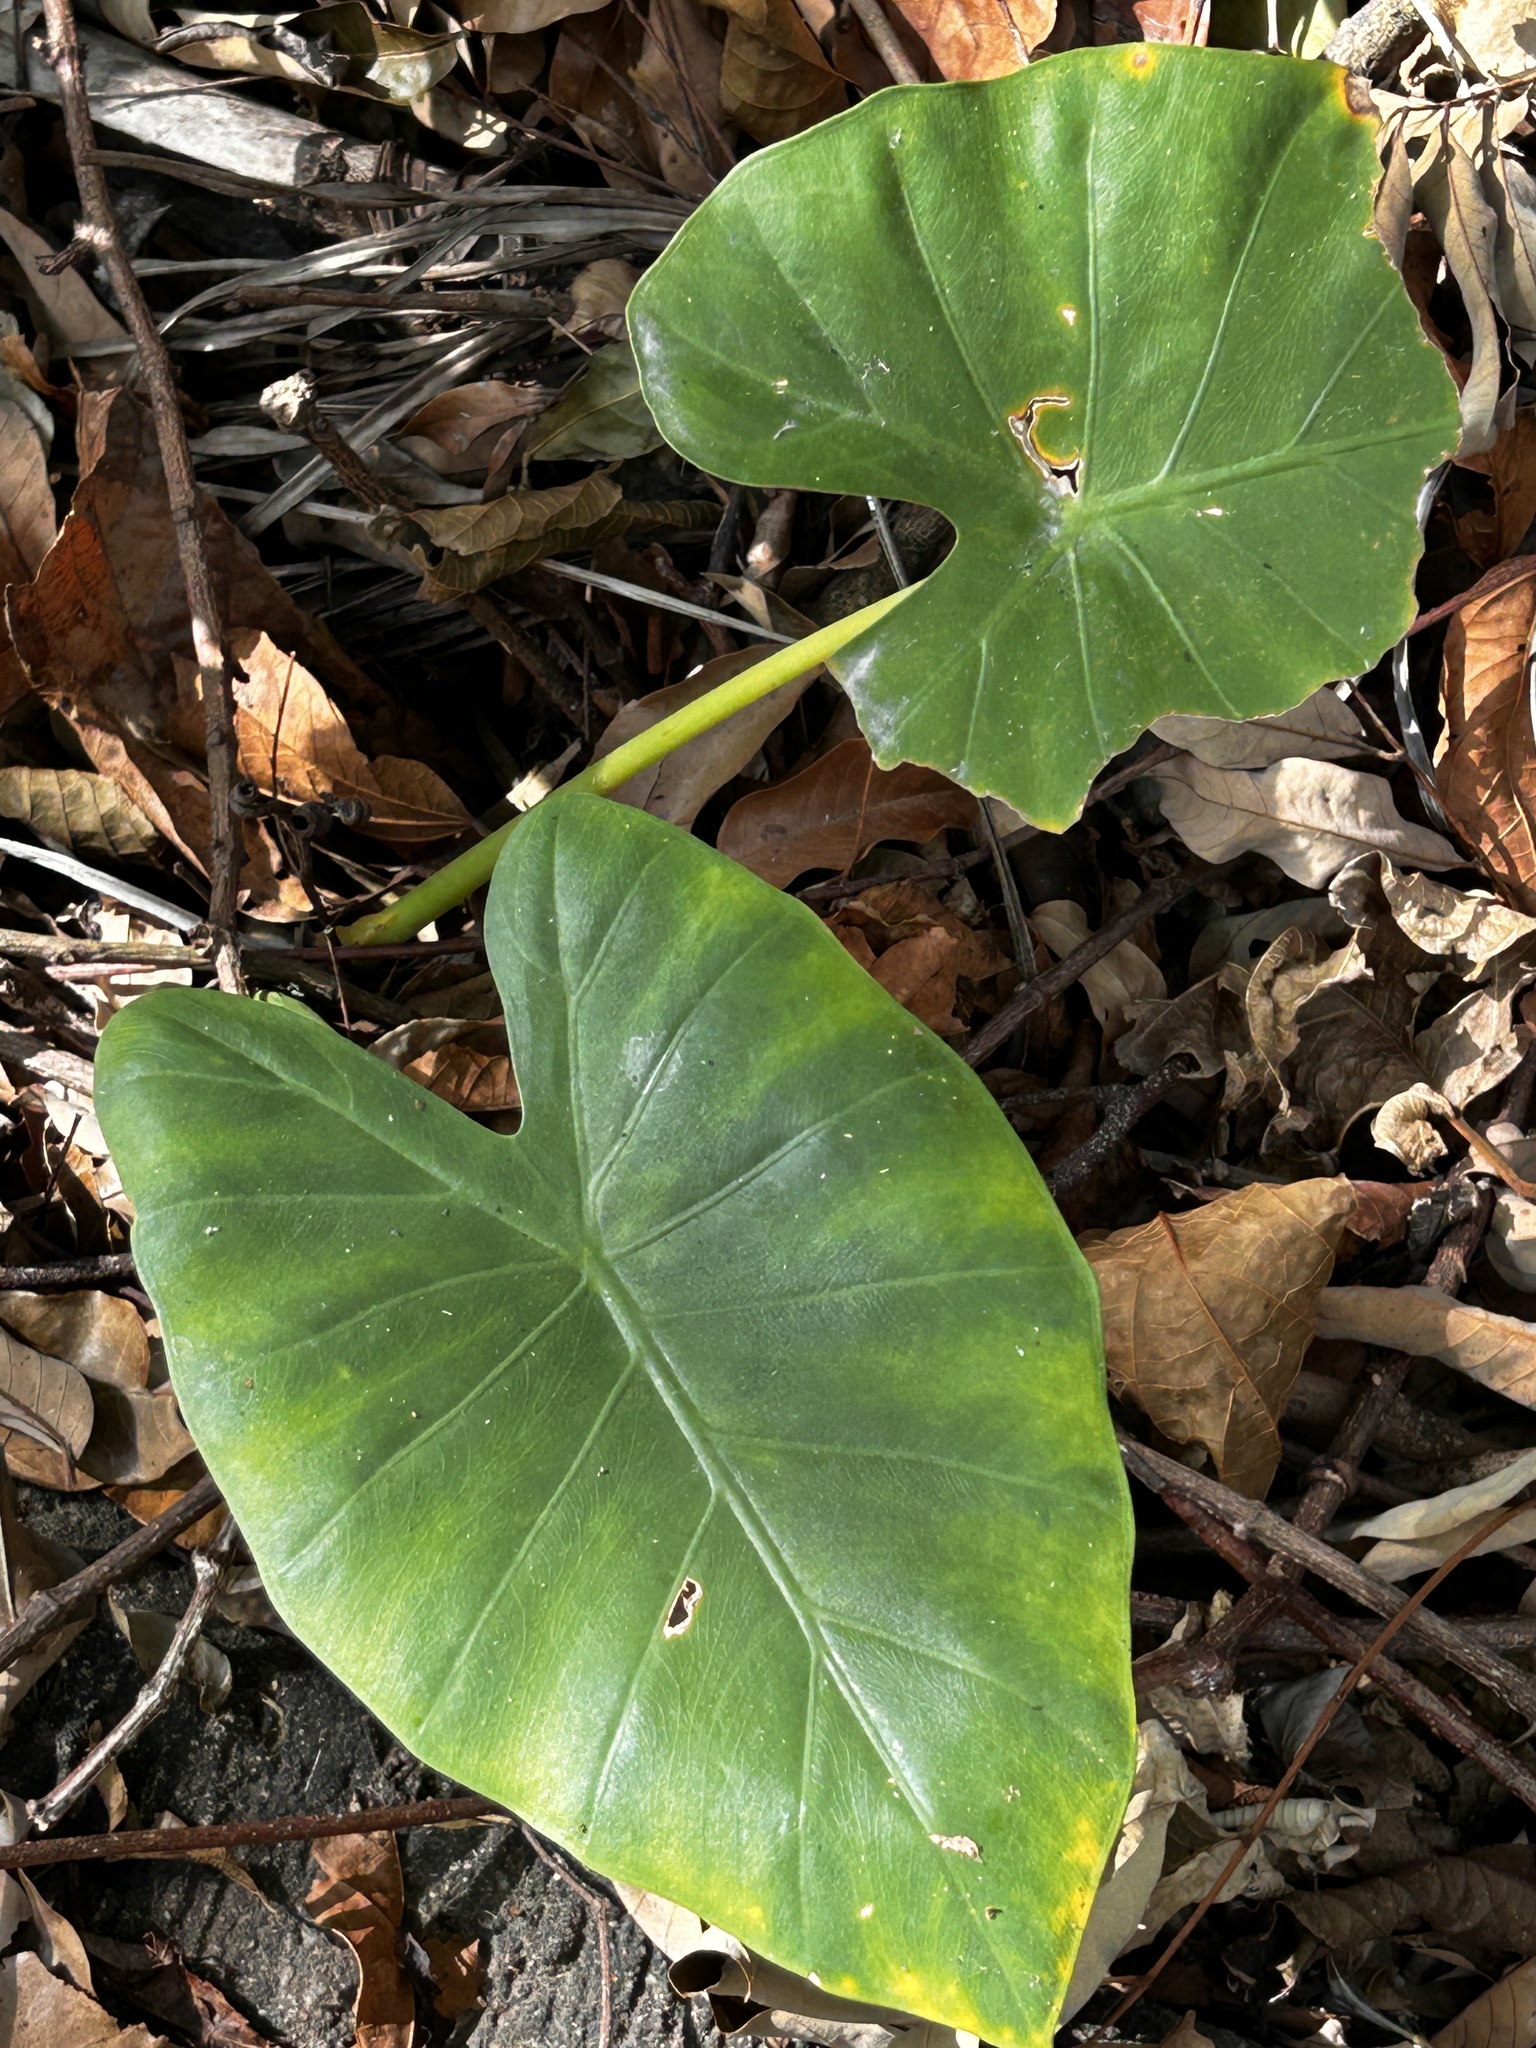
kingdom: Plantae
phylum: Tracheophyta
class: Liliopsida
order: Alismatales
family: Araceae
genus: Alocasia
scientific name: Alocasia odora
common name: Asian taro
